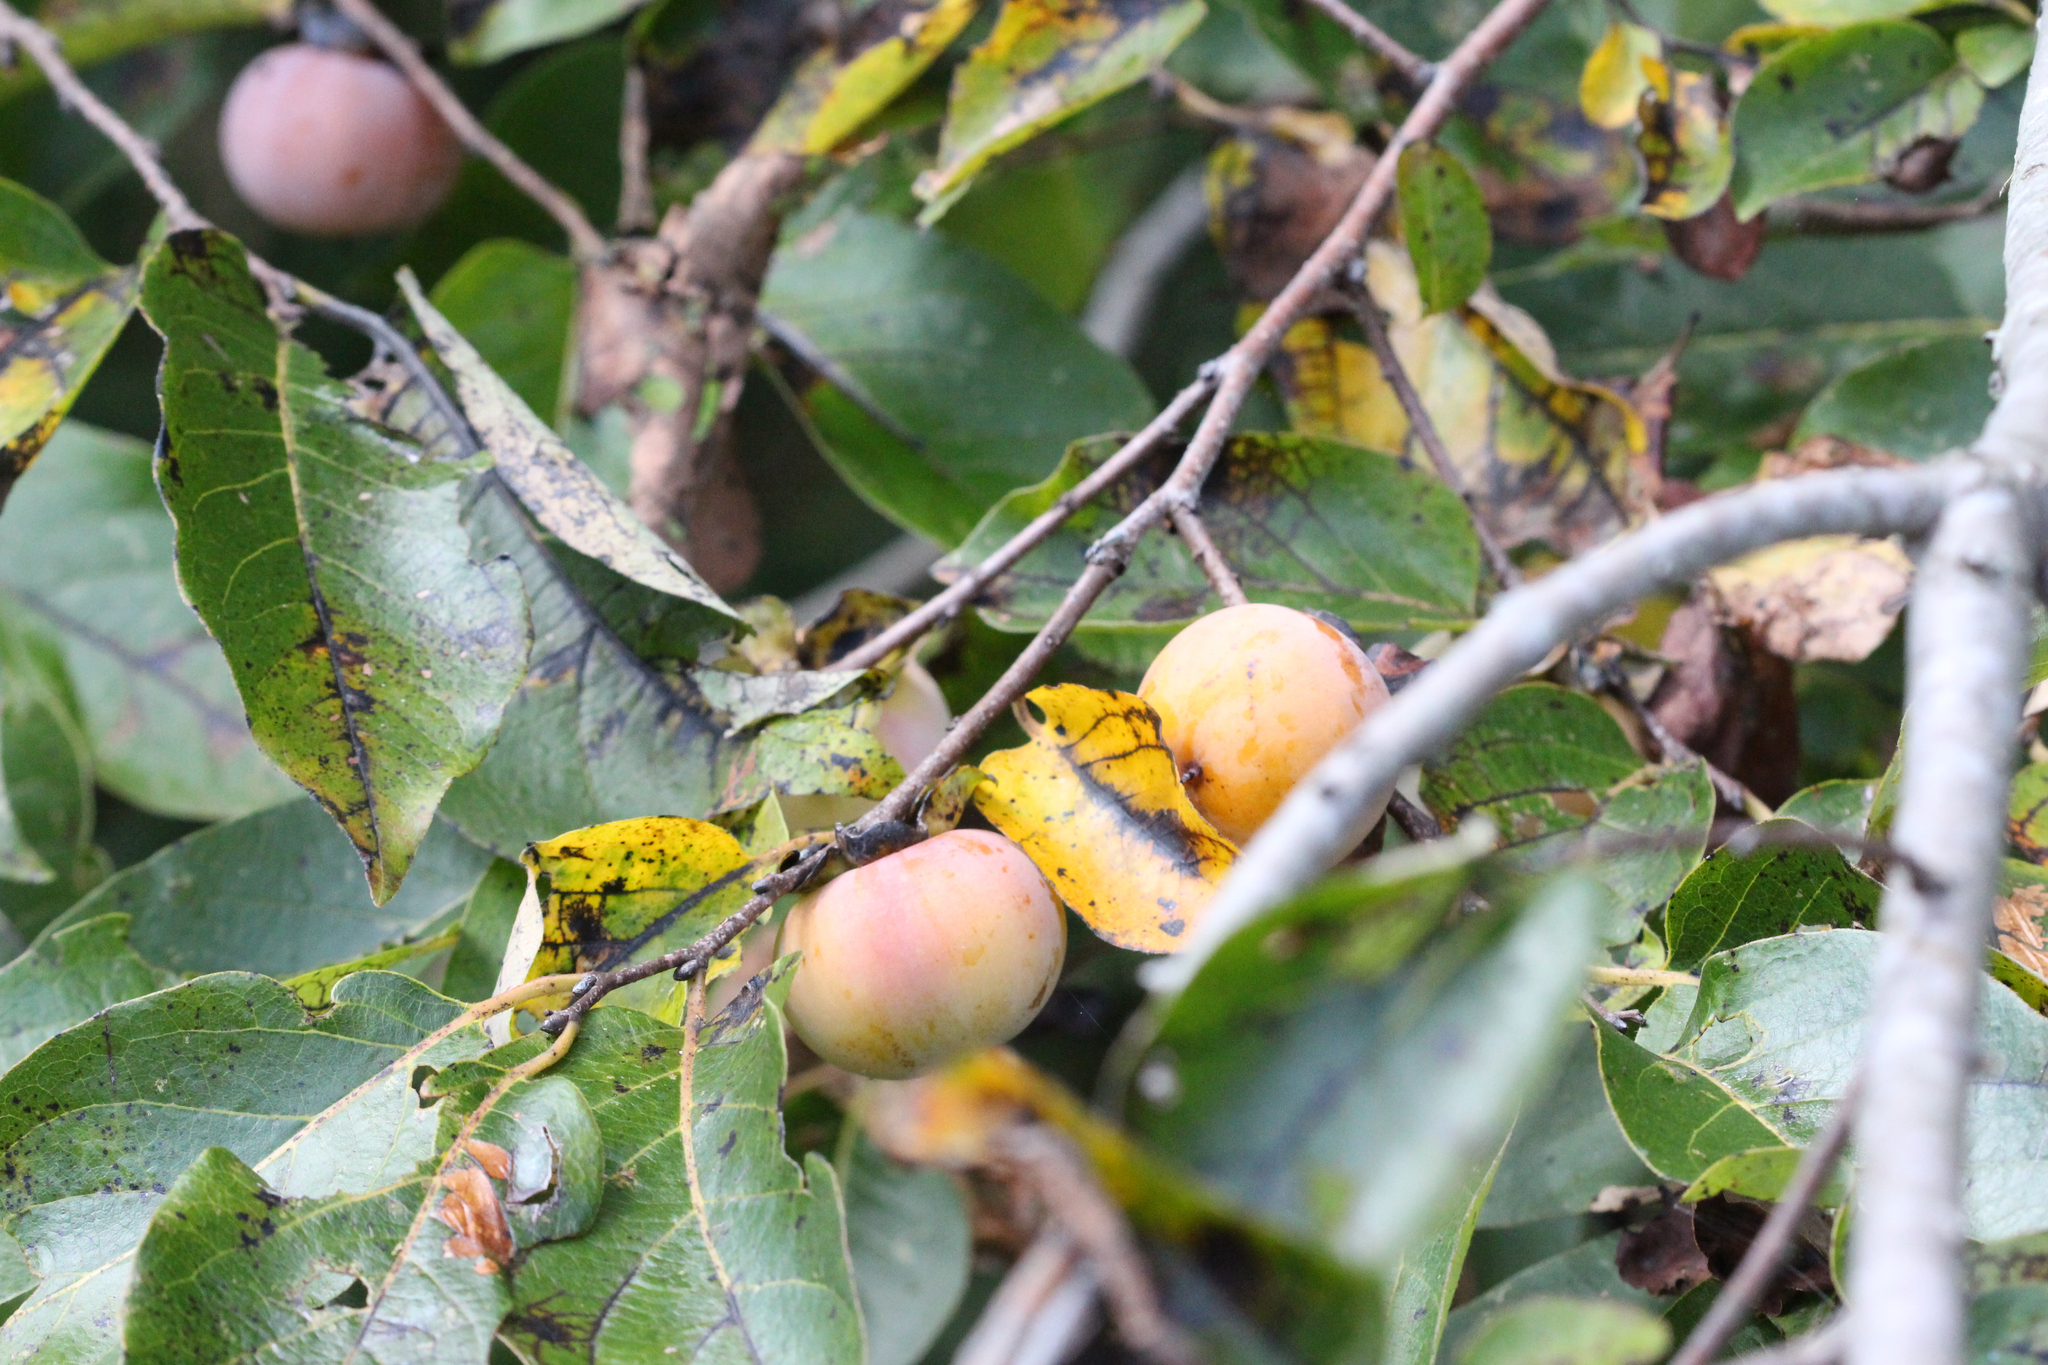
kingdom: Plantae
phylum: Tracheophyta
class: Magnoliopsida
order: Ericales
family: Ebenaceae
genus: Diospyros
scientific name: Diospyros virginiana
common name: Persimmon
